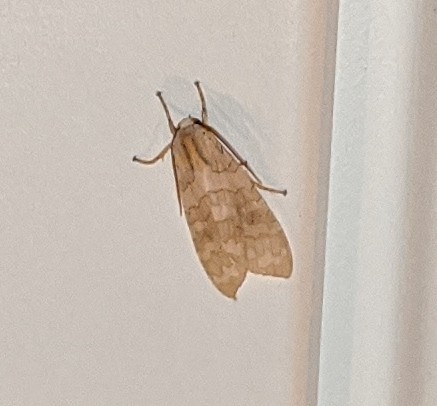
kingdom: Animalia
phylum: Arthropoda
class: Insecta
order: Lepidoptera
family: Erebidae
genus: Halysidota
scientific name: Halysidota
